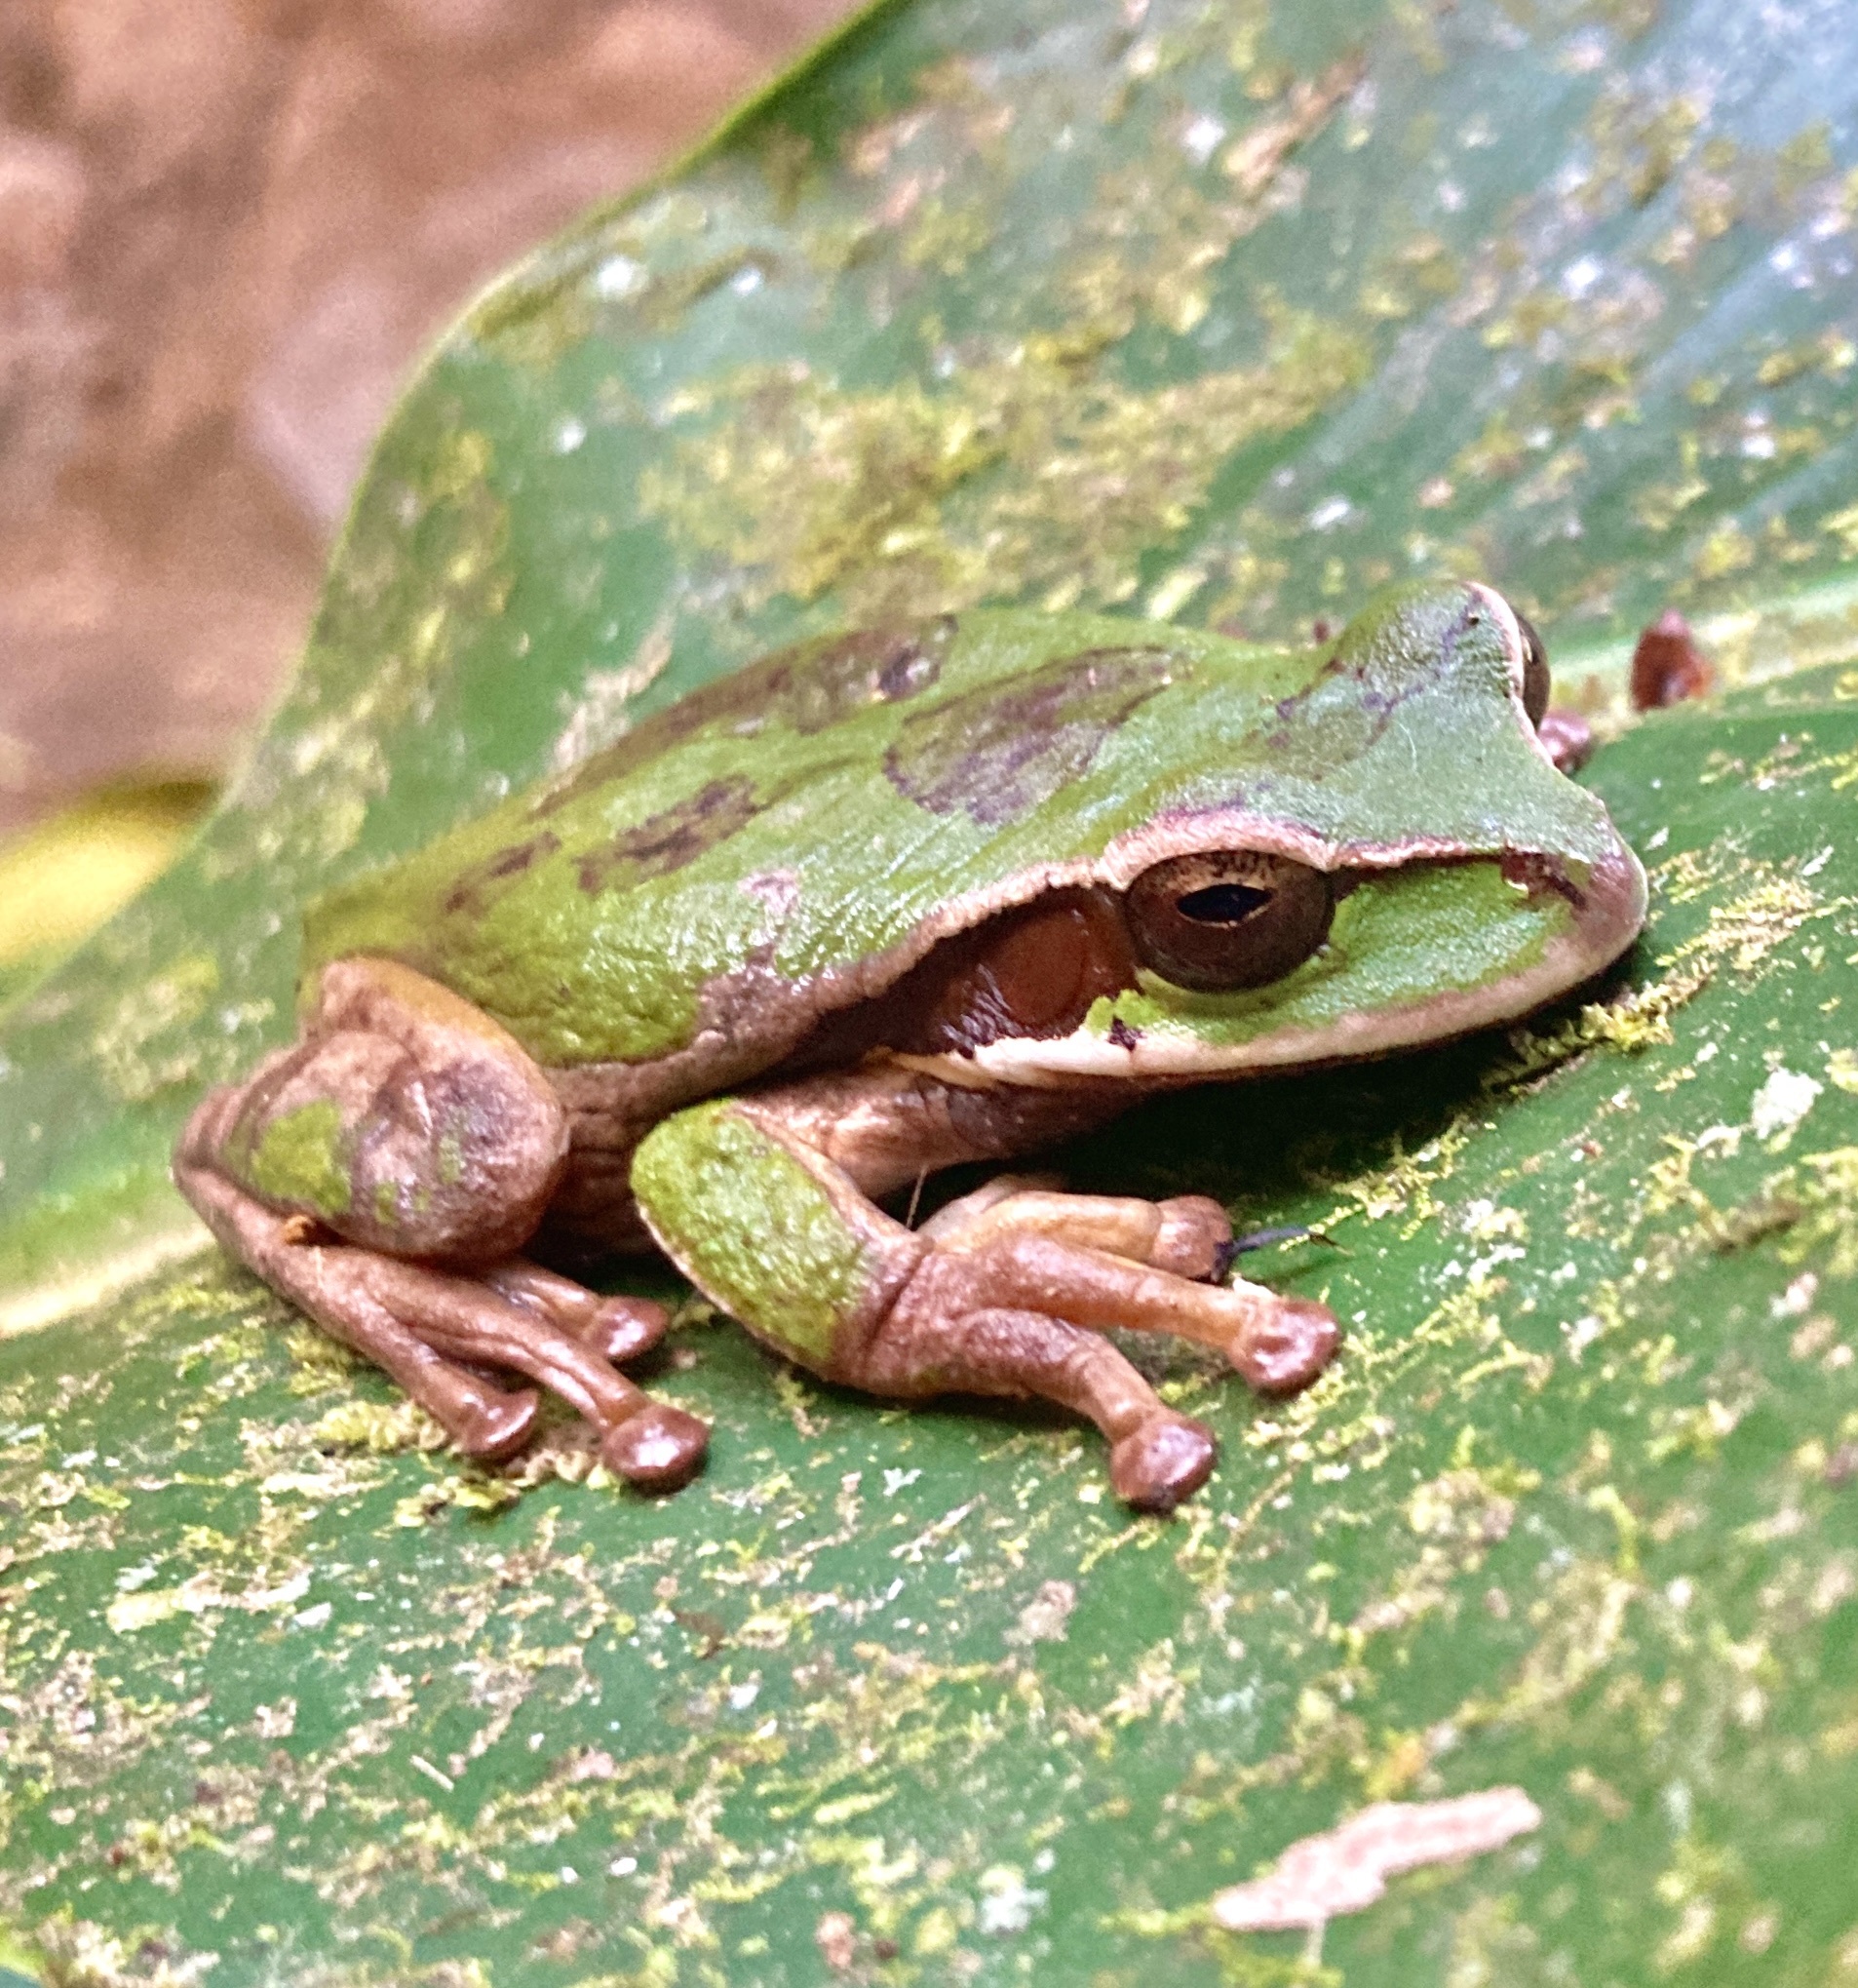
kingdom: Animalia
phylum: Chordata
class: Amphibia
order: Anura
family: Hylidae
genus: Smilisca
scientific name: Smilisca phaeota
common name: Central american smilisca
